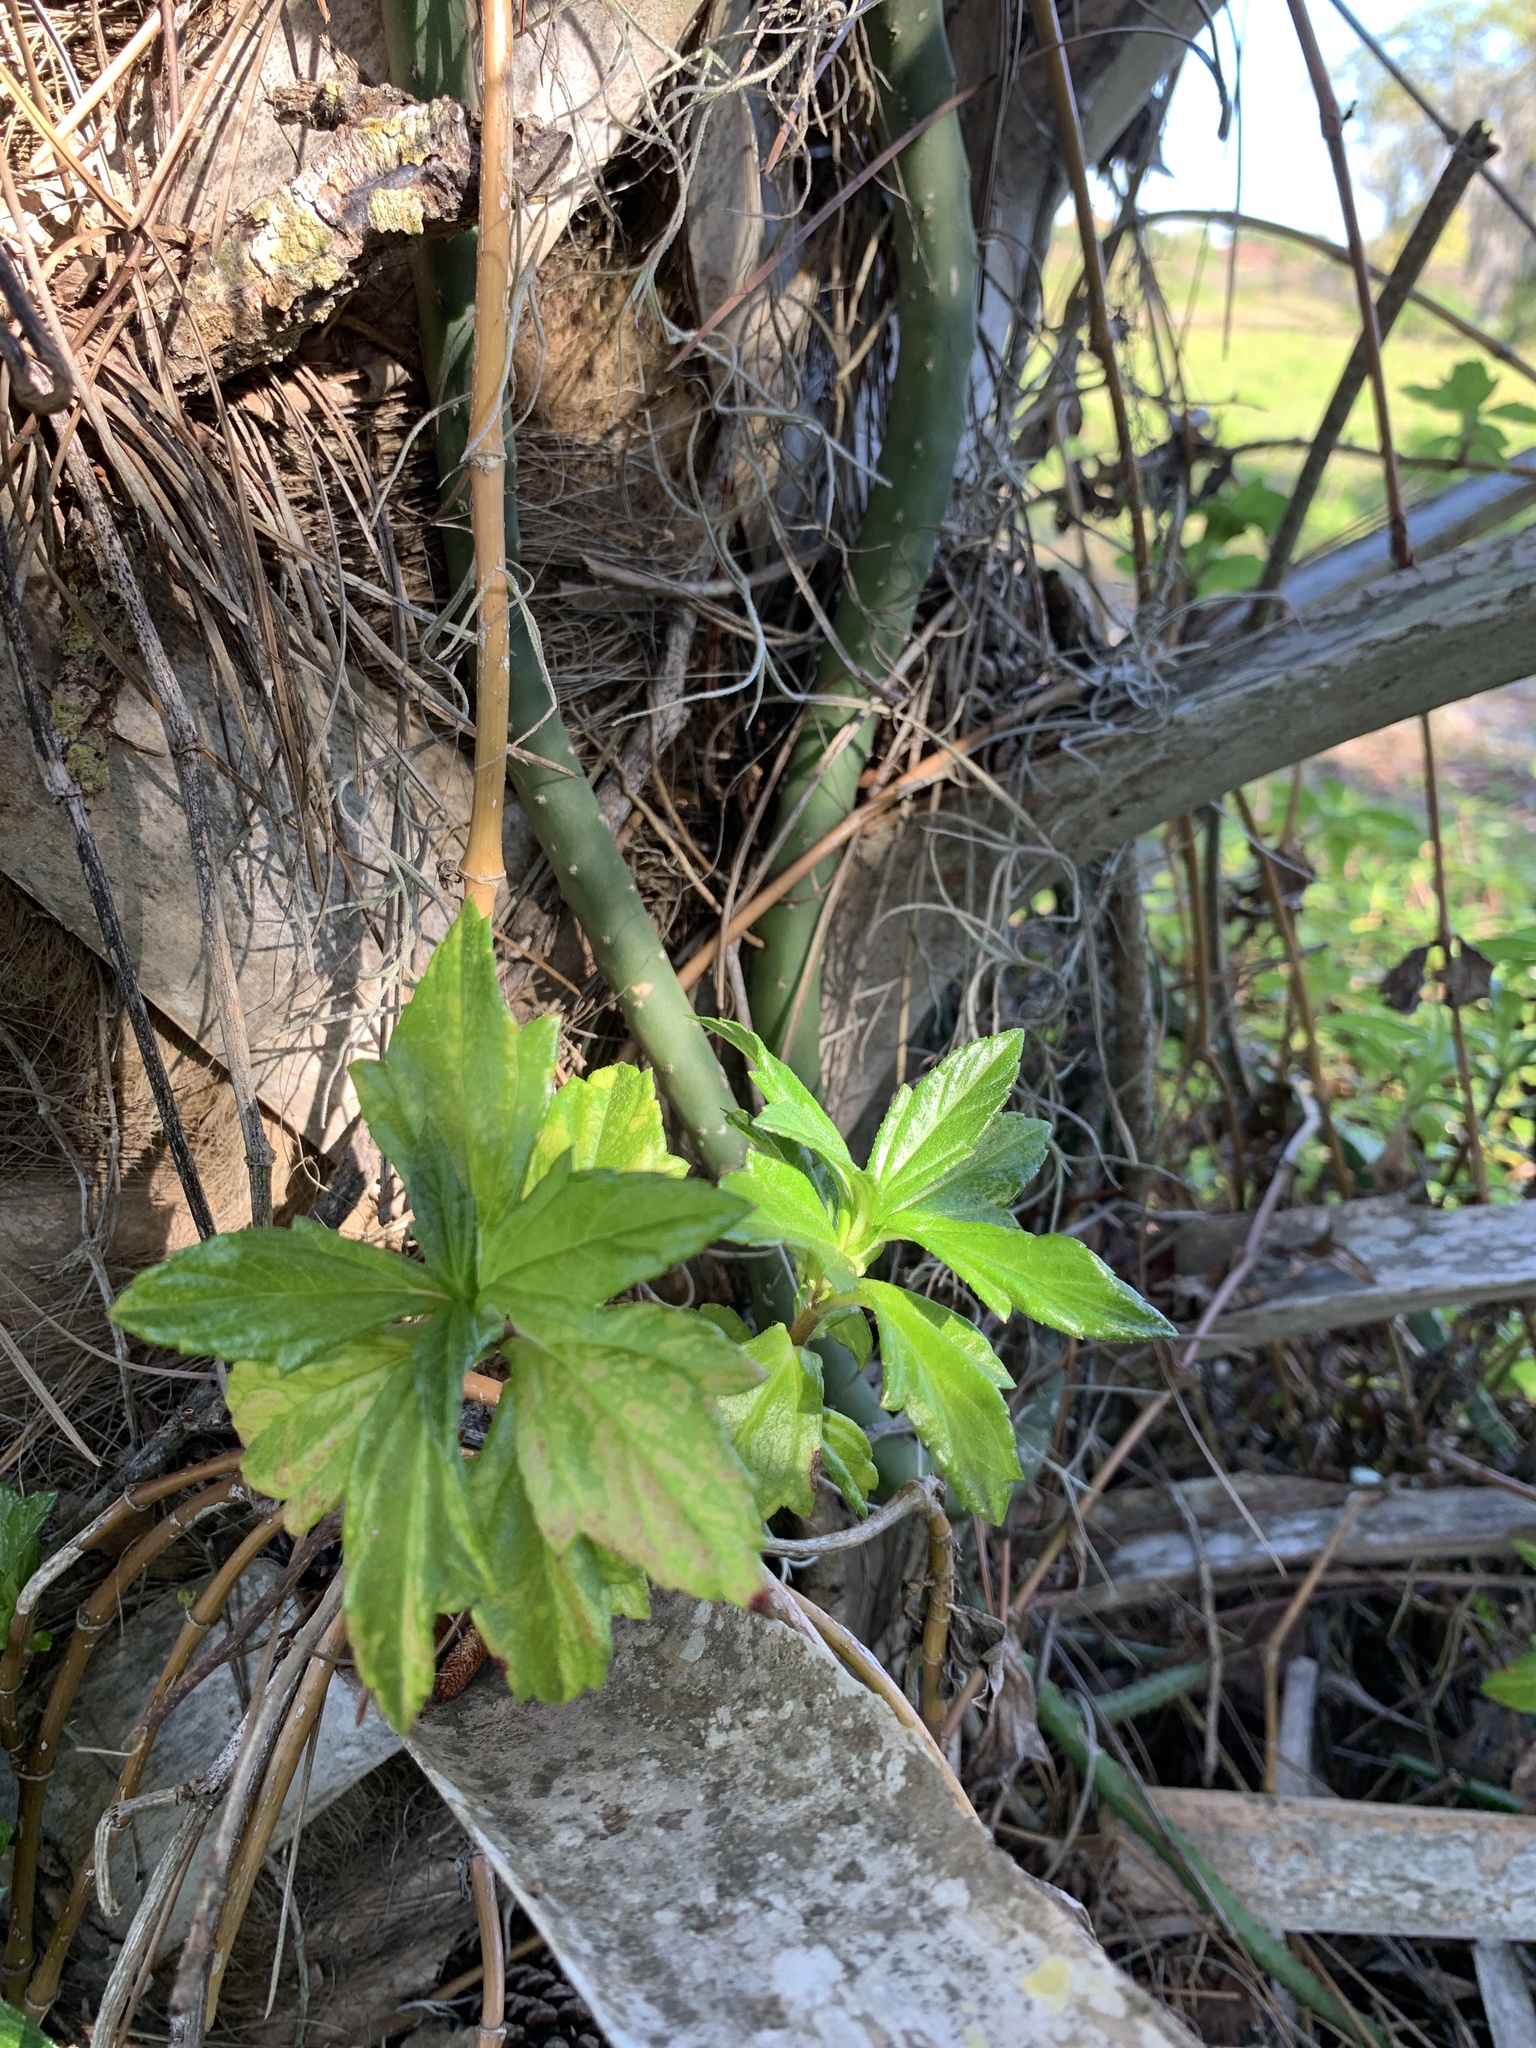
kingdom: Plantae
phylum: Tracheophyta
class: Magnoliopsida
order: Asterales
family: Asteraceae
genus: Sphagneticola
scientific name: Sphagneticola trilobata
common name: Bay biscayne creeping-oxeye
